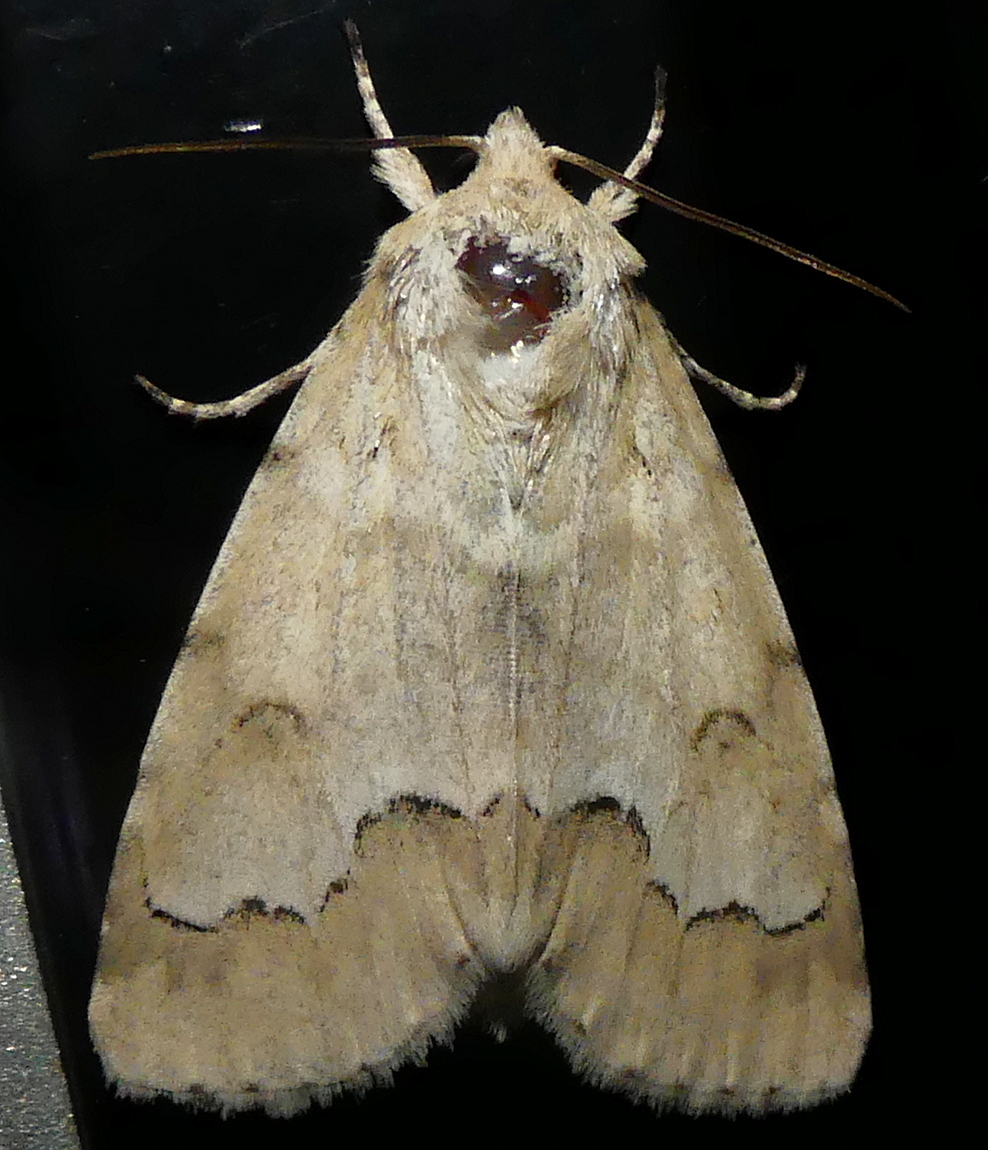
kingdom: Animalia
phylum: Arthropoda
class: Insecta
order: Lepidoptera
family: Noctuidae
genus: Acronicta
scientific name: Acronicta innotata
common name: Unmarked dagger
